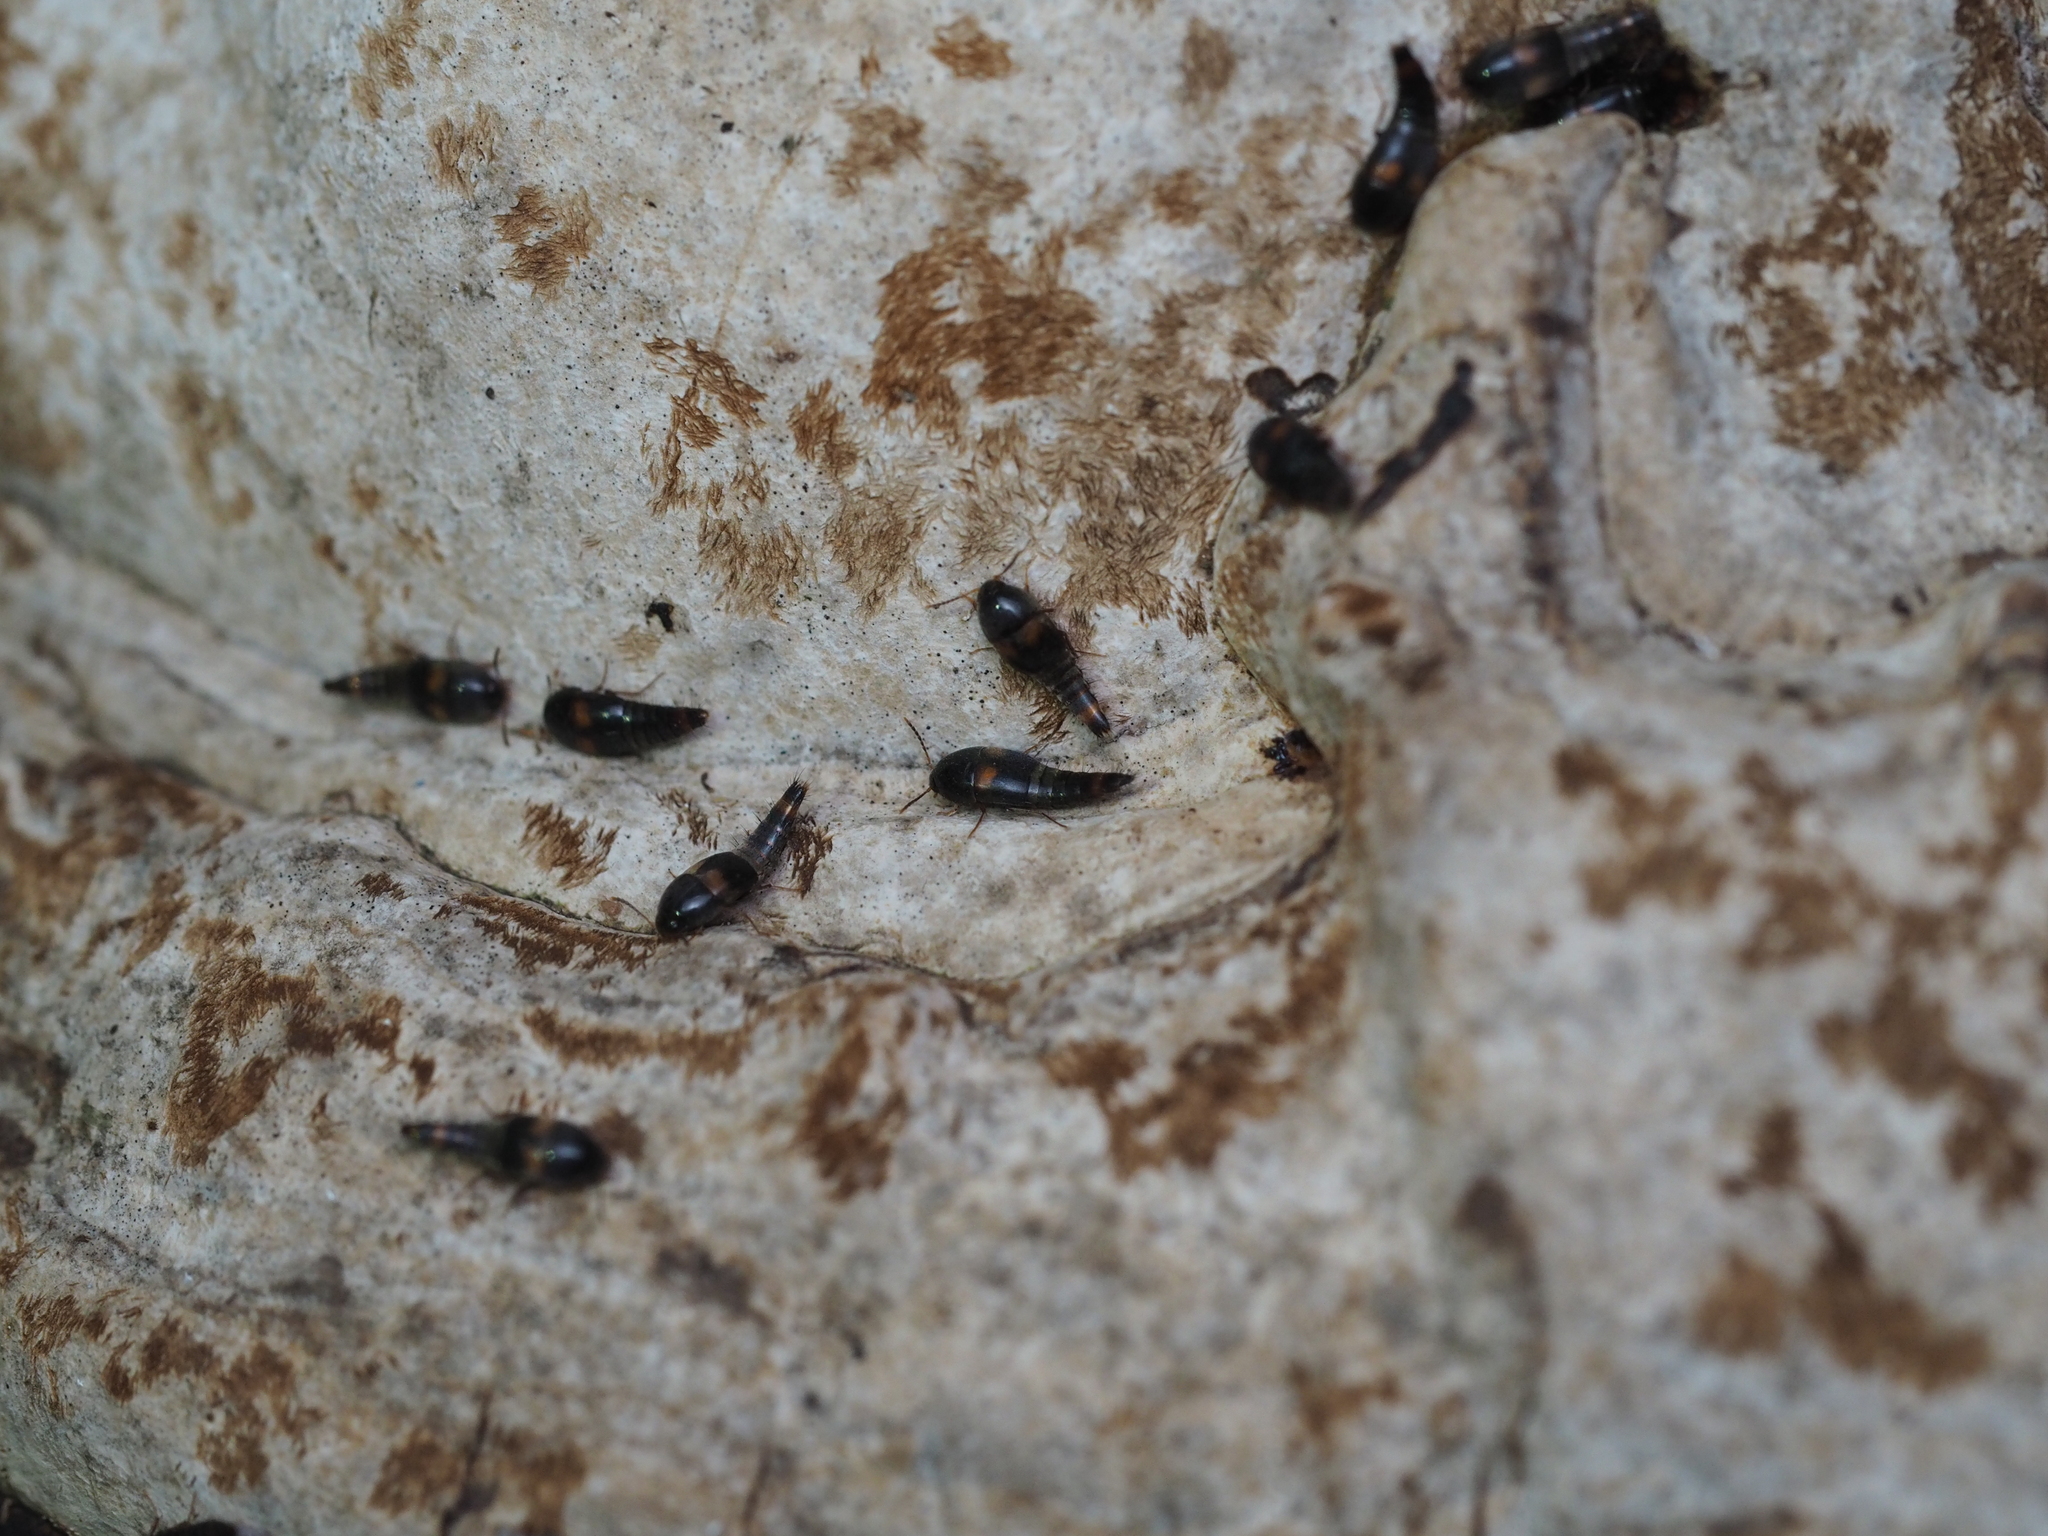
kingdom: Animalia
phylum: Arthropoda
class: Insecta
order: Coleoptera
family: Staphylinidae
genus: Sepedophilus
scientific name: Sepedophilus bipustulatus
